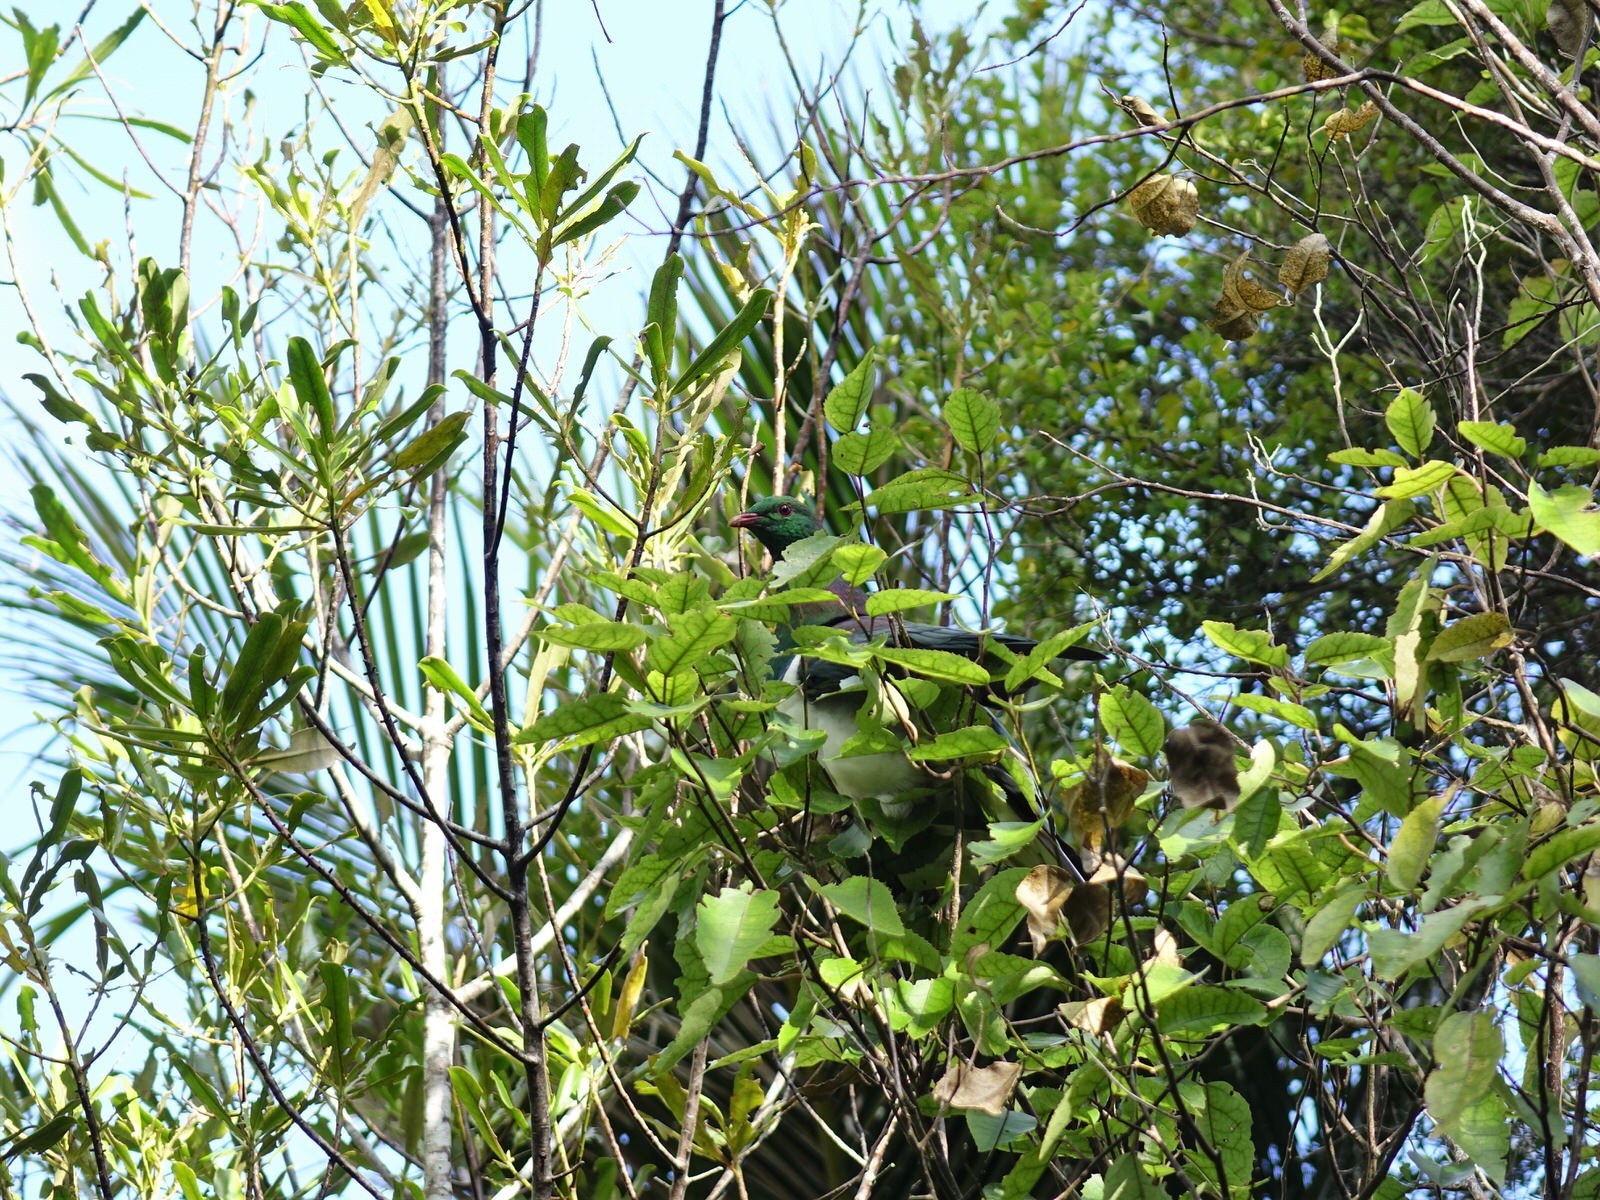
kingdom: Animalia
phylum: Chordata
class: Aves
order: Columbiformes
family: Columbidae
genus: Hemiphaga
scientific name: Hemiphaga novaeseelandiae
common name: New zealand pigeon
